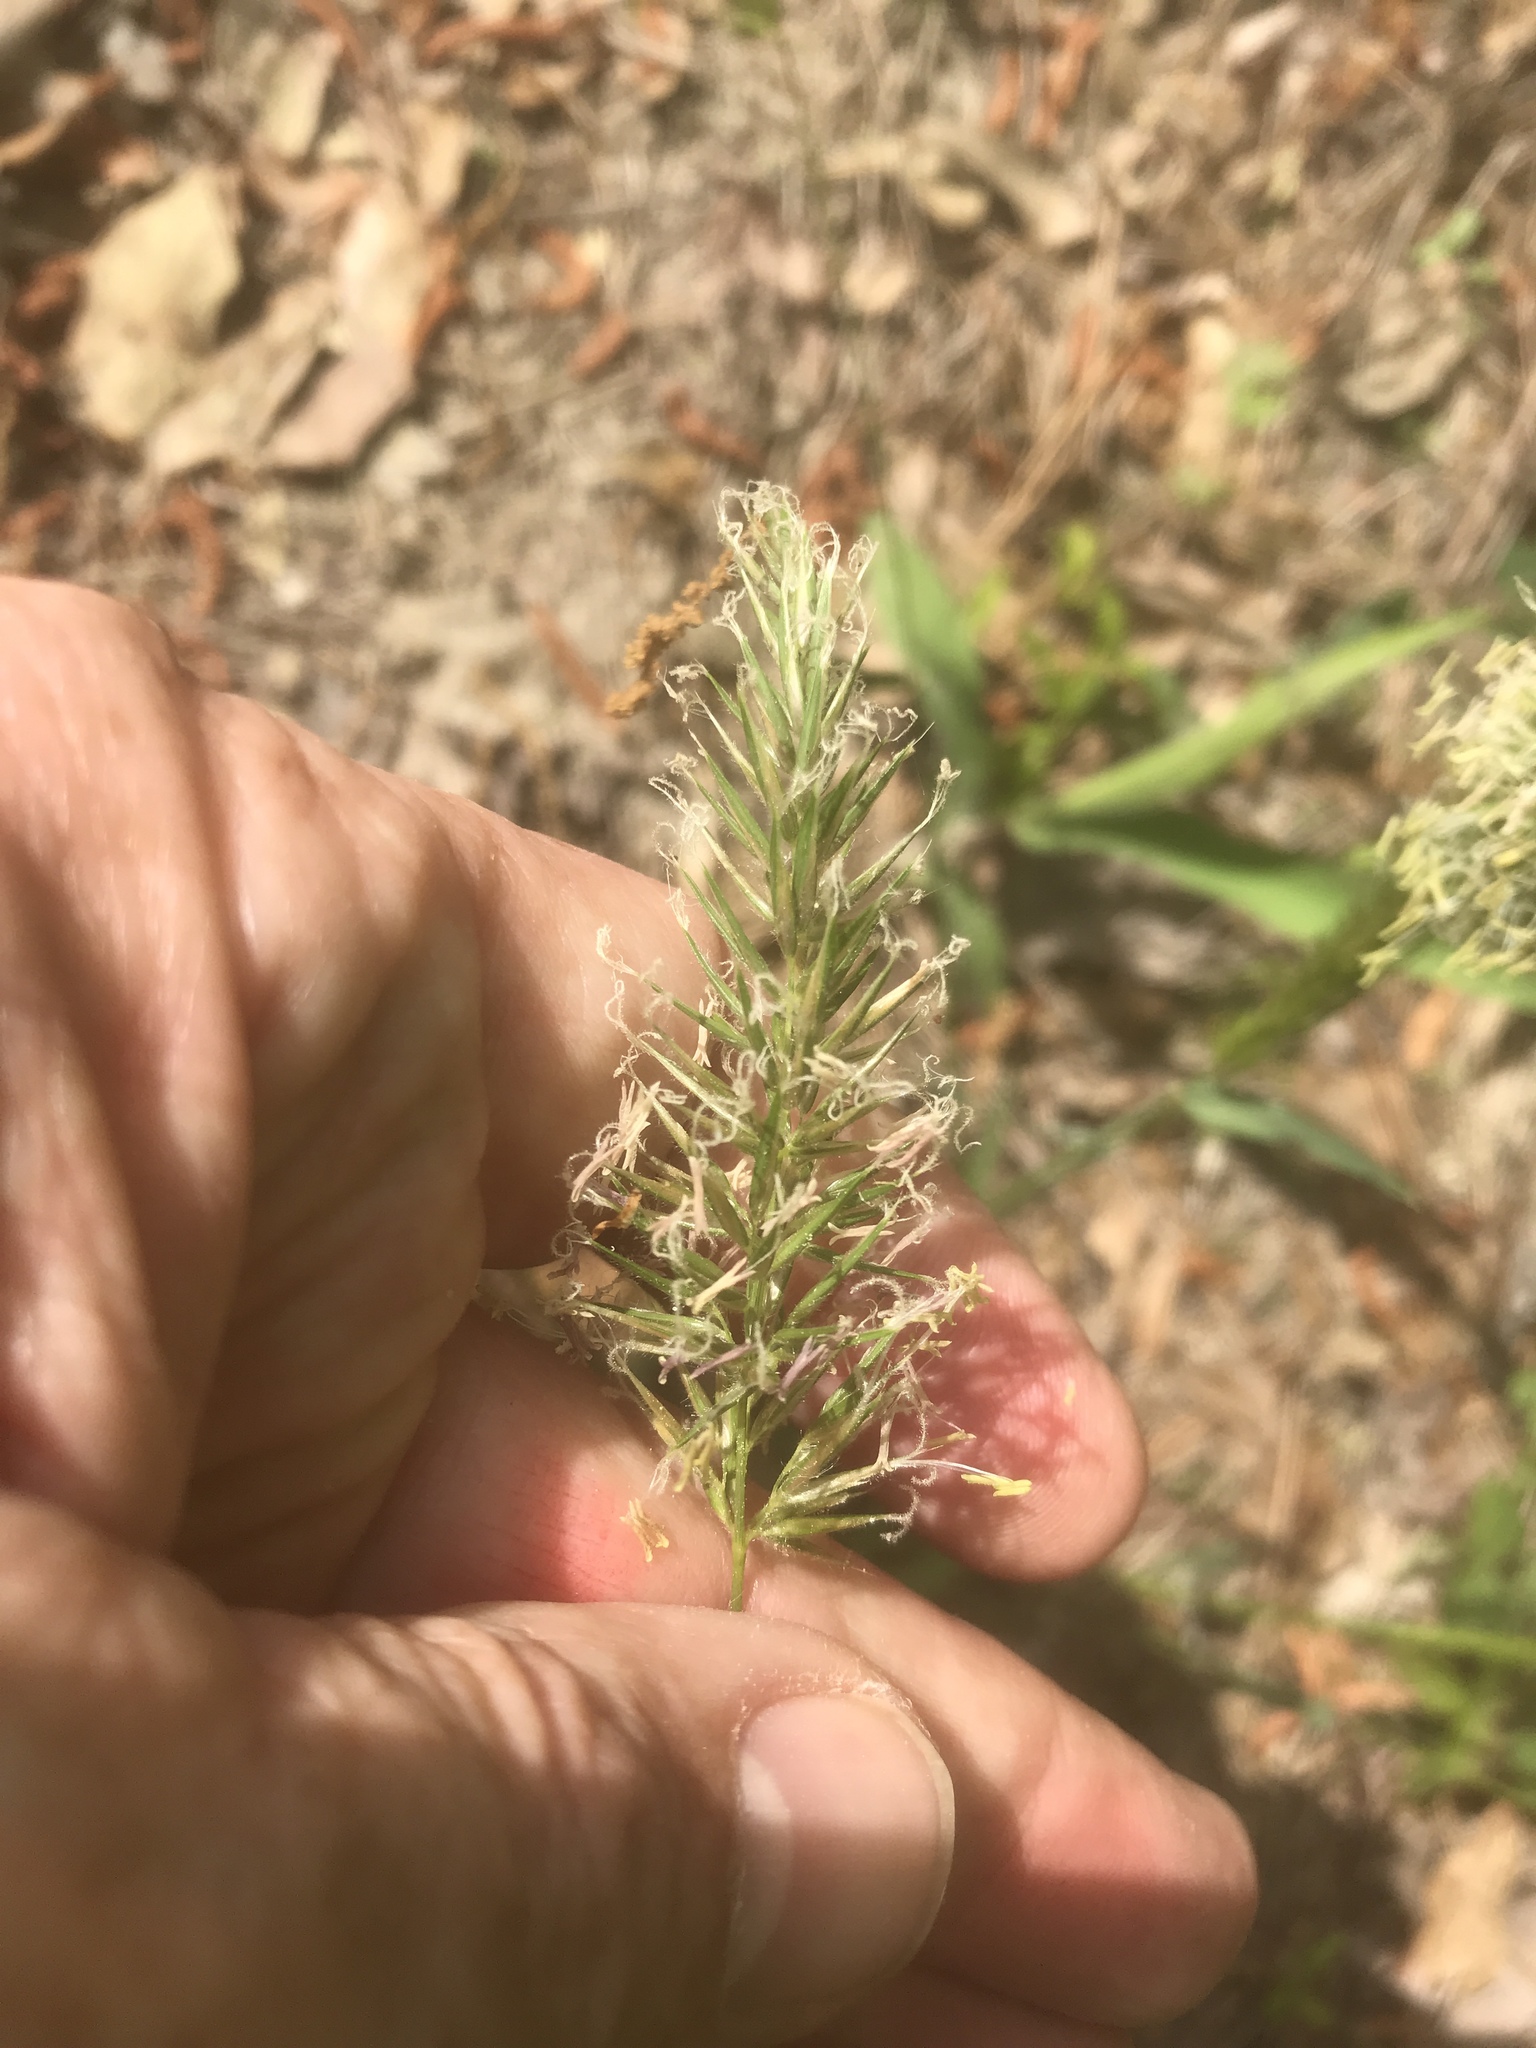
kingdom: Plantae
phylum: Tracheophyta
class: Liliopsida
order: Poales
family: Poaceae
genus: Anthoxanthum
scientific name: Anthoxanthum odoratum
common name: Sweet vernalgrass
